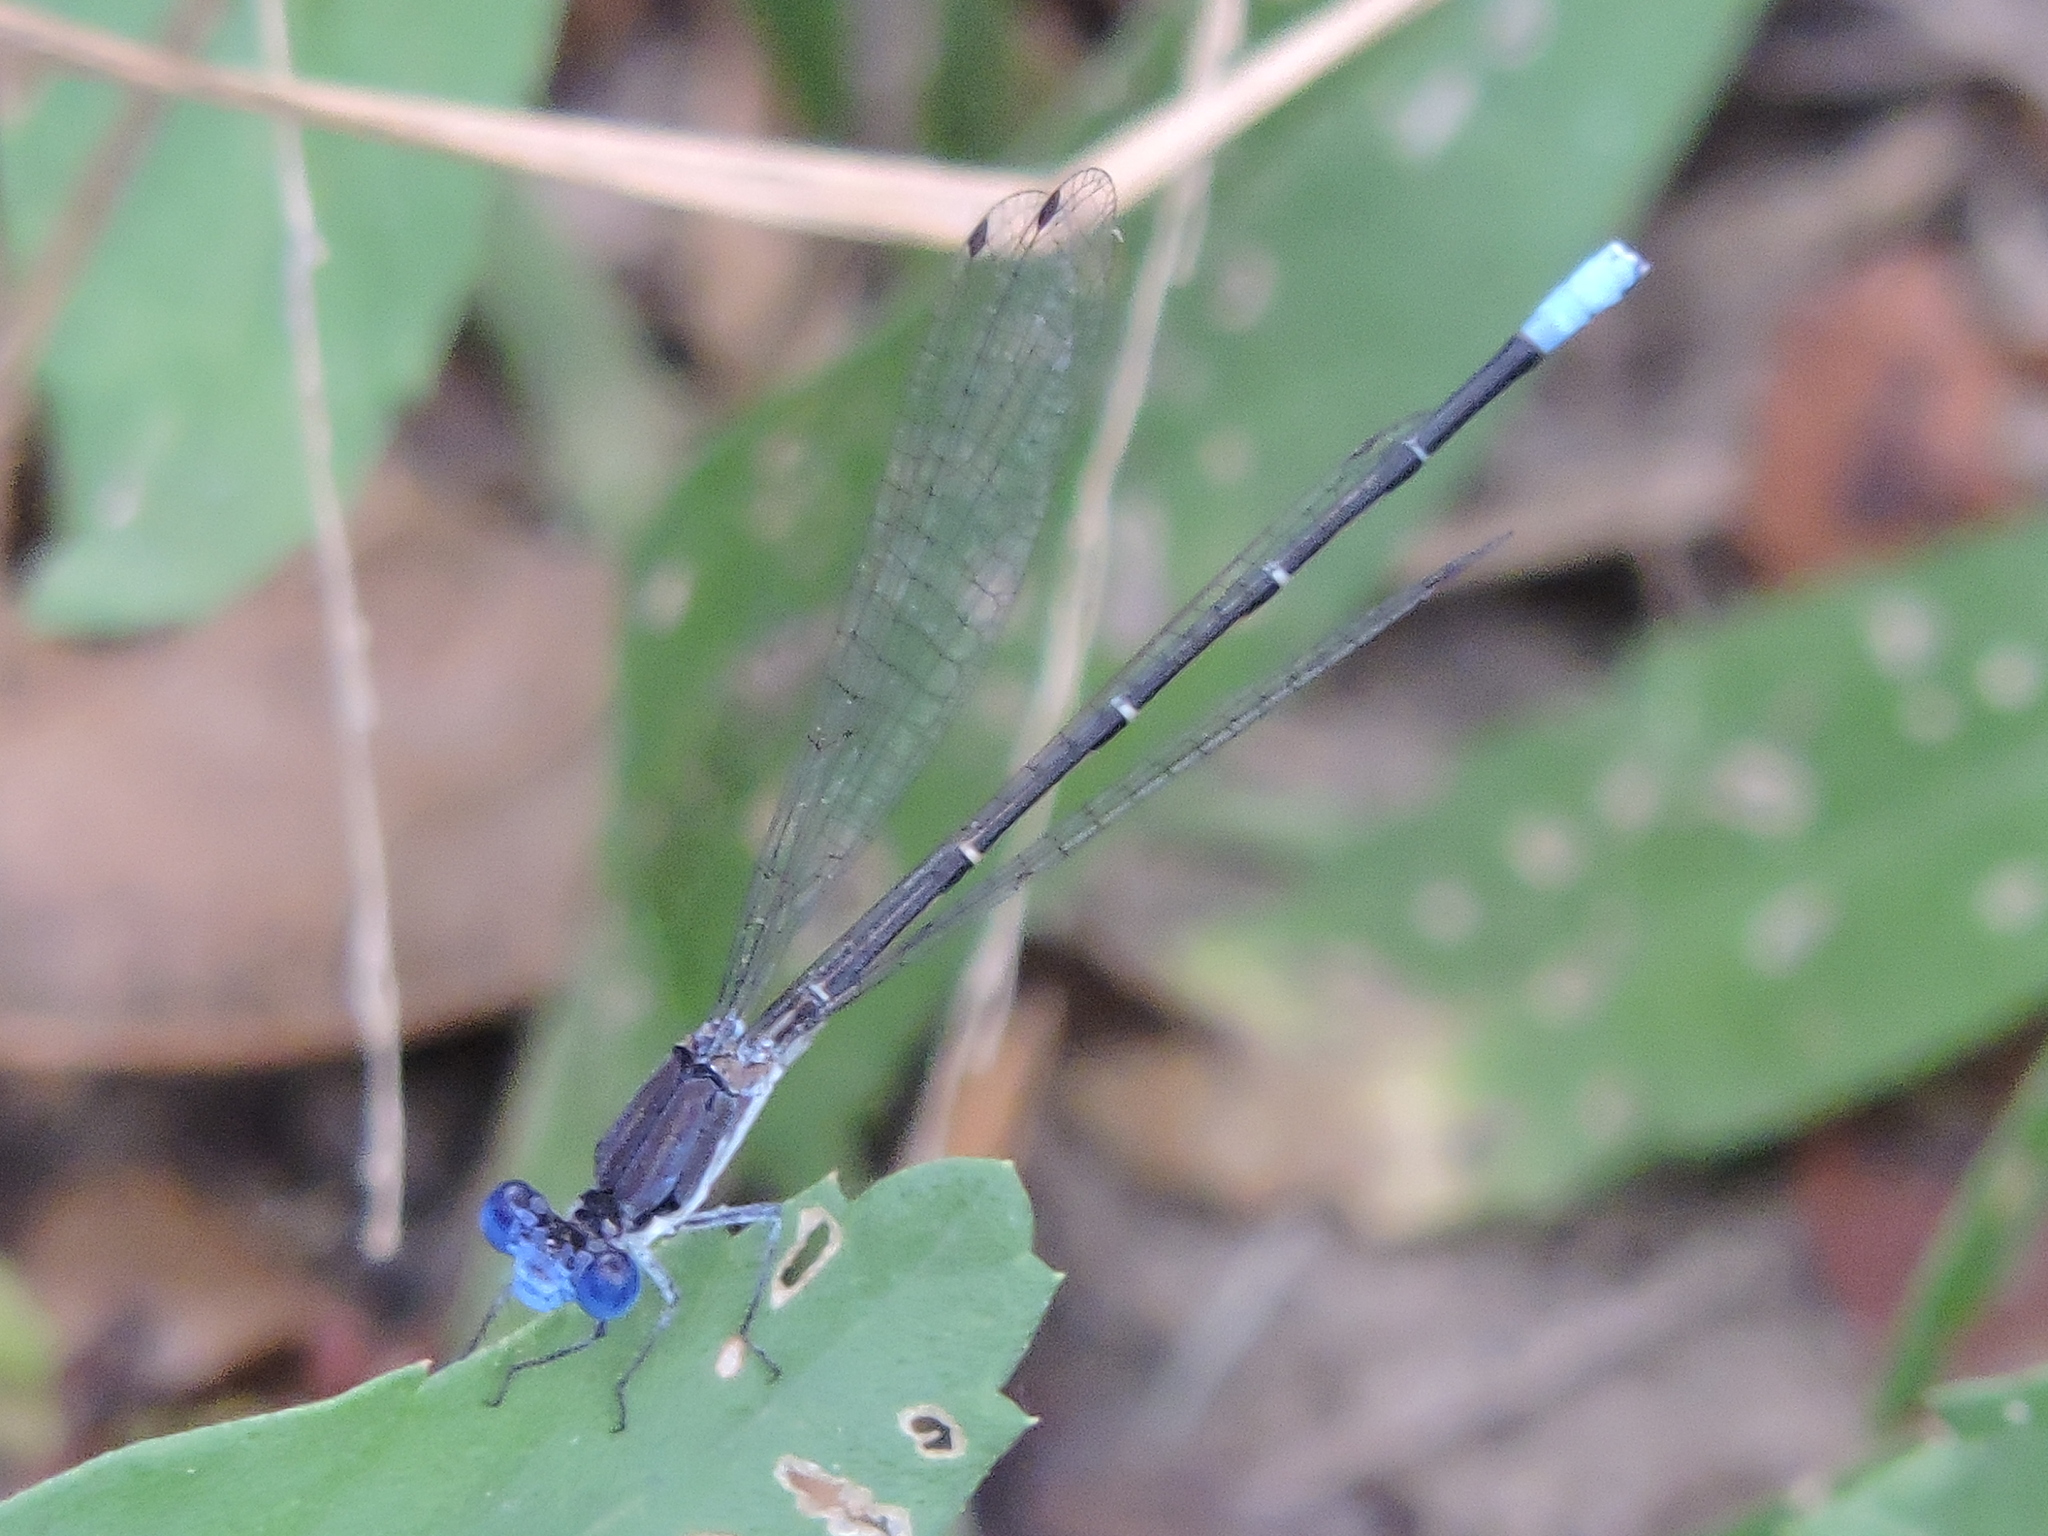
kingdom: Animalia
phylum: Arthropoda
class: Insecta
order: Odonata
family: Coenagrionidae
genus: Argia
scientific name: Argia apicalis
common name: Blue-fronted dancer
